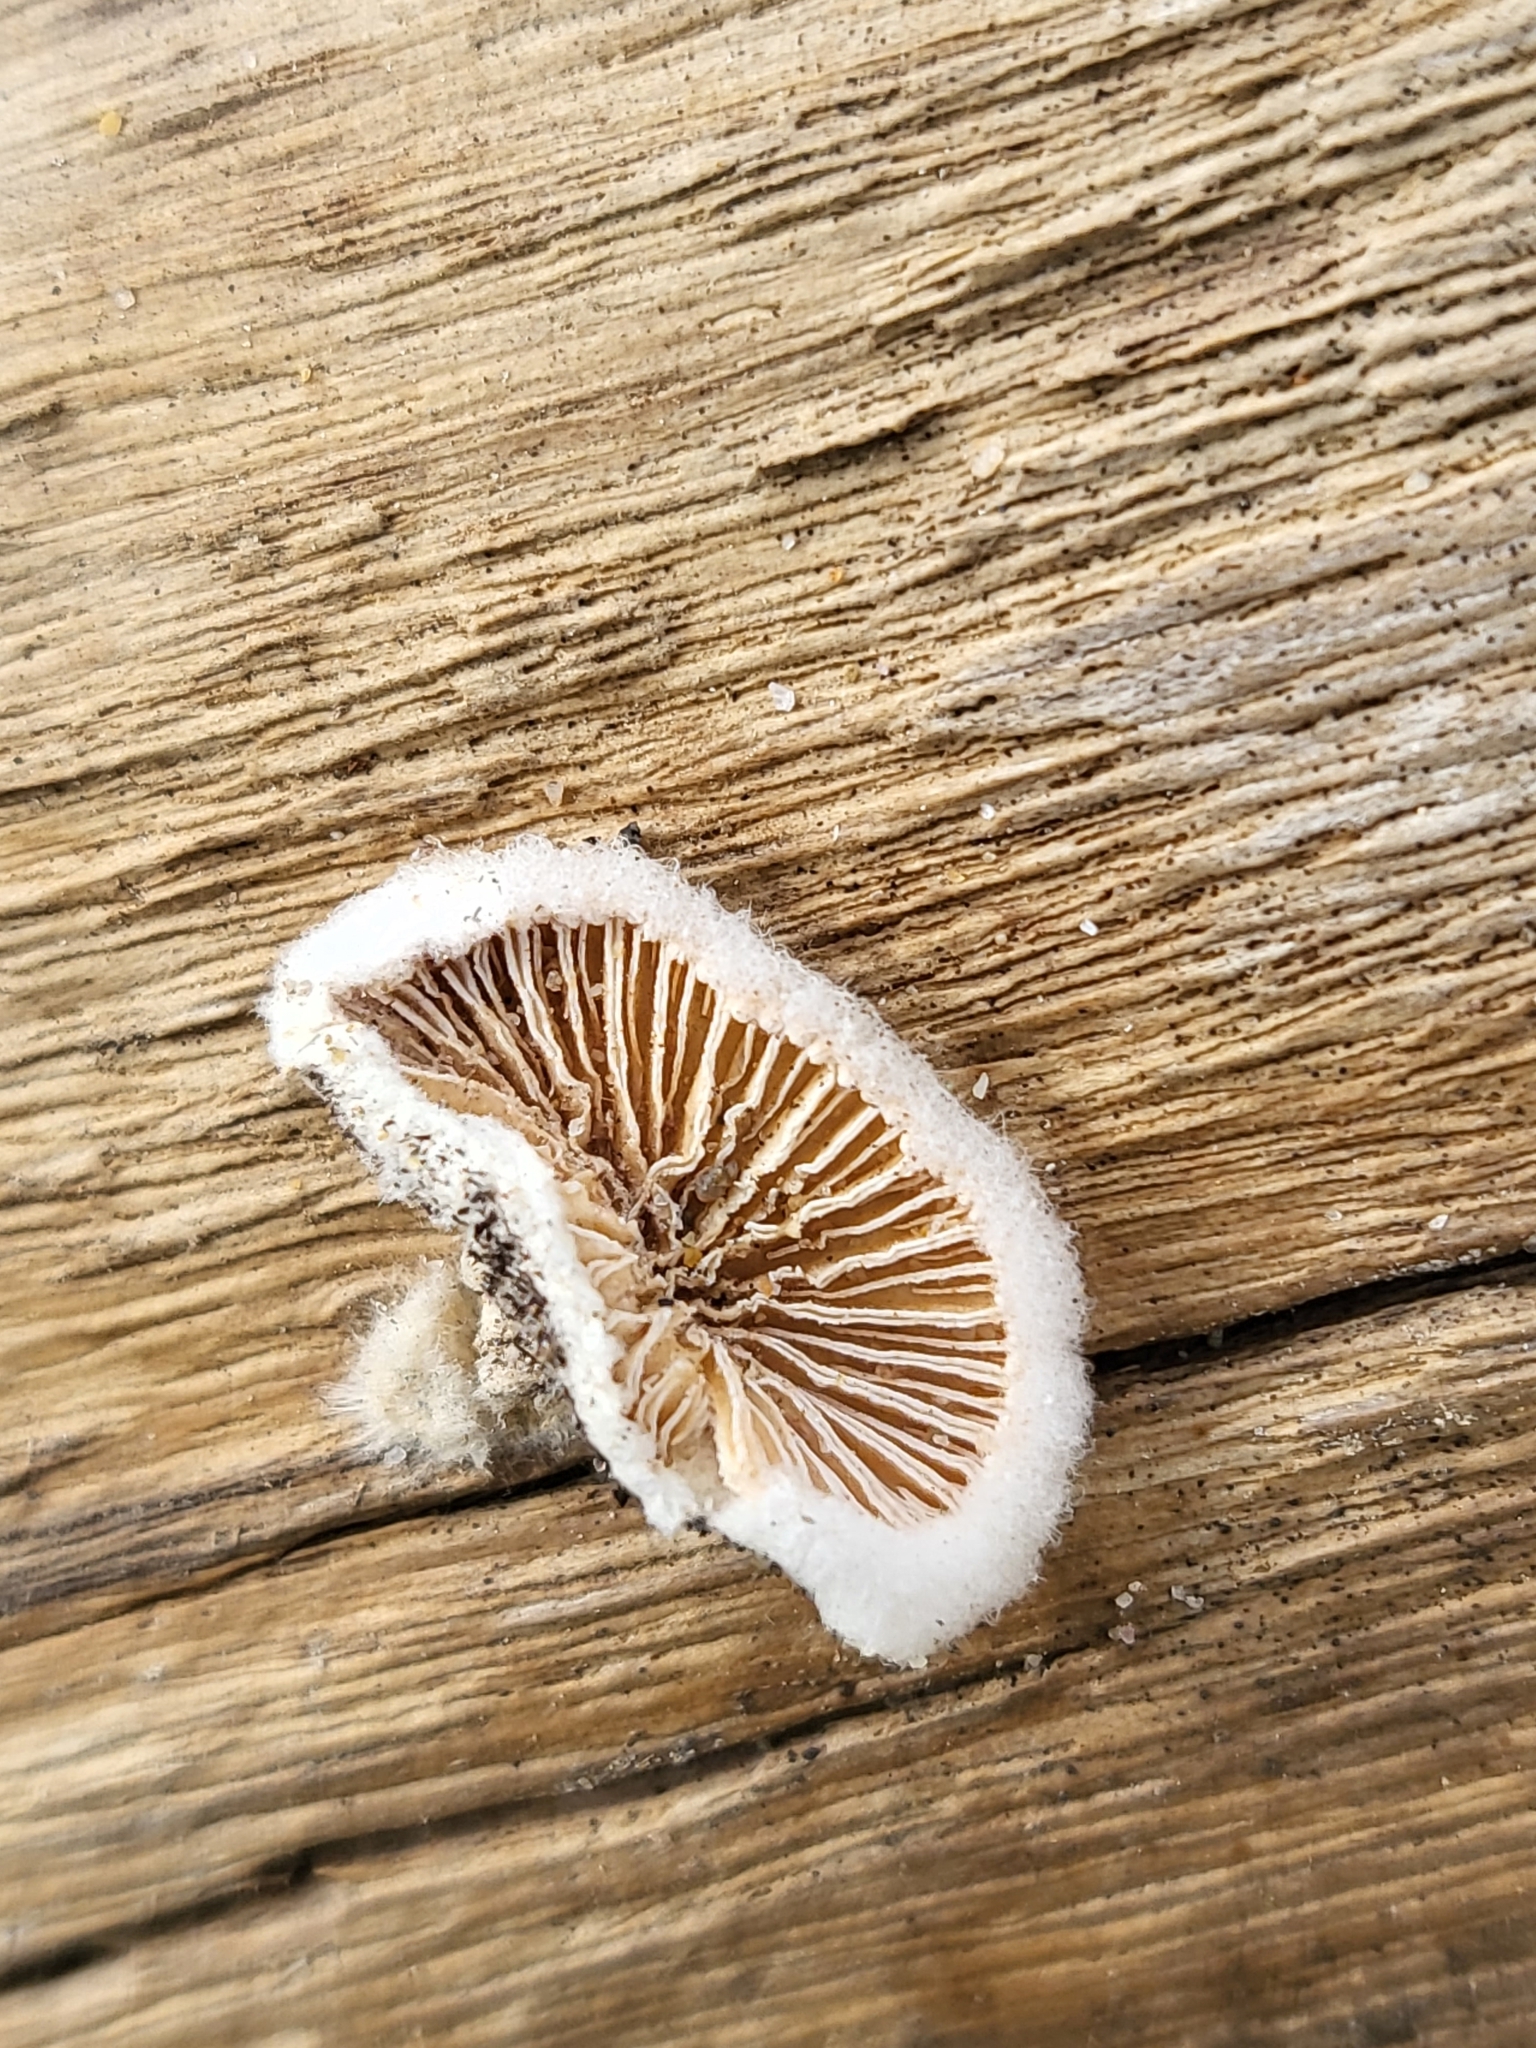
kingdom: Fungi
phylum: Basidiomycota
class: Agaricomycetes
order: Agaricales
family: Schizophyllaceae
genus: Schizophyllum
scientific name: Schizophyllum commune
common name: Common porecrust
